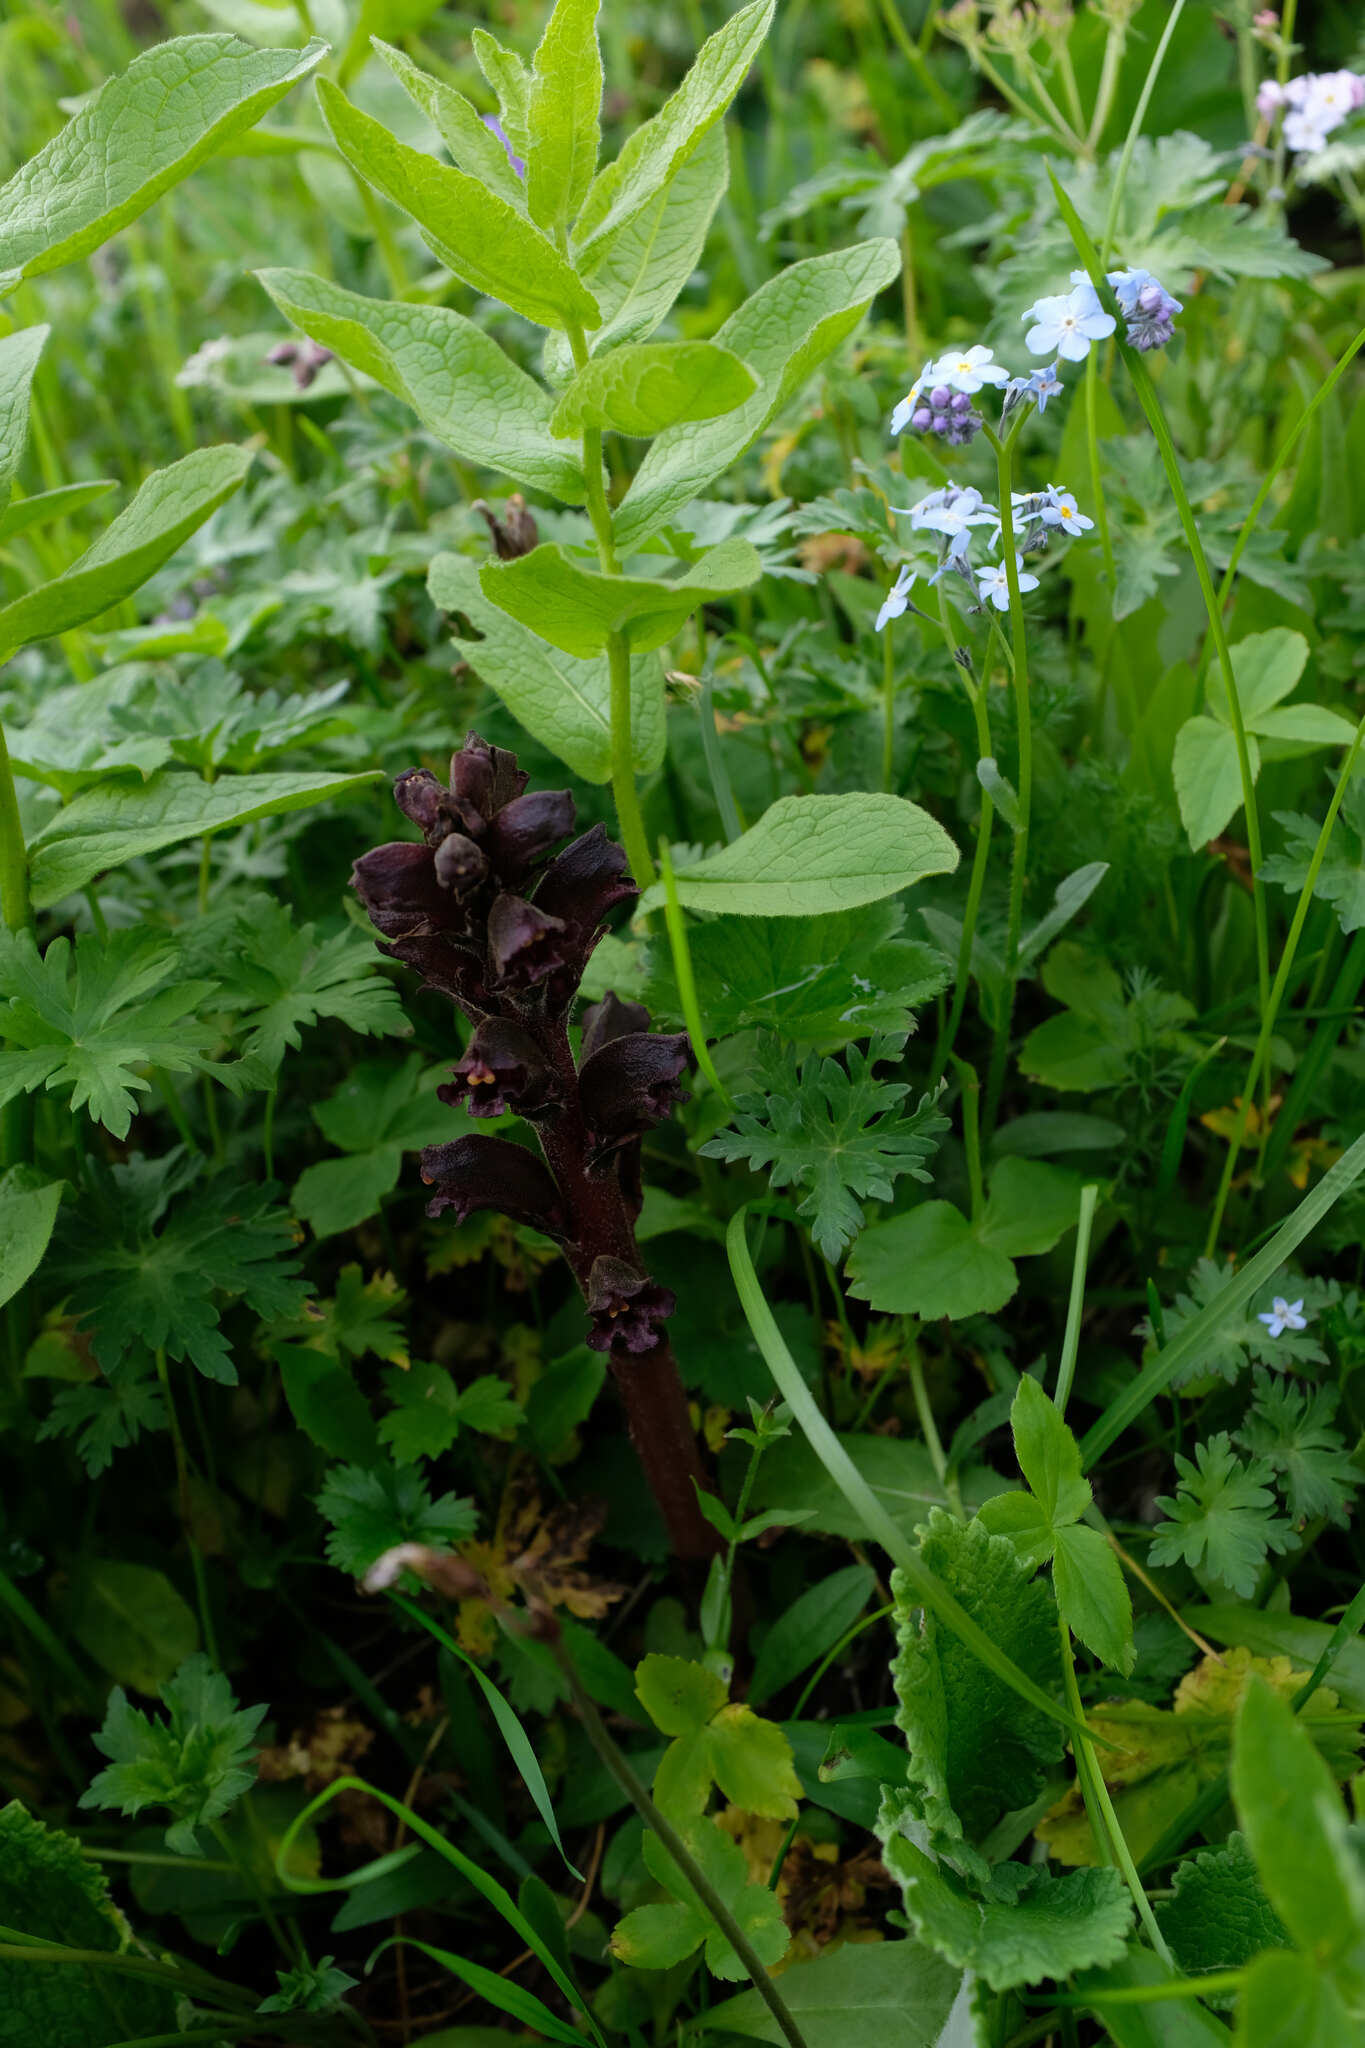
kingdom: Plantae
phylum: Tracheophyta
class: Magnoliopsida
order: Lamiales
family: Orobanchaceae
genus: Orobanche
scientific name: Orobanche gamosepala
